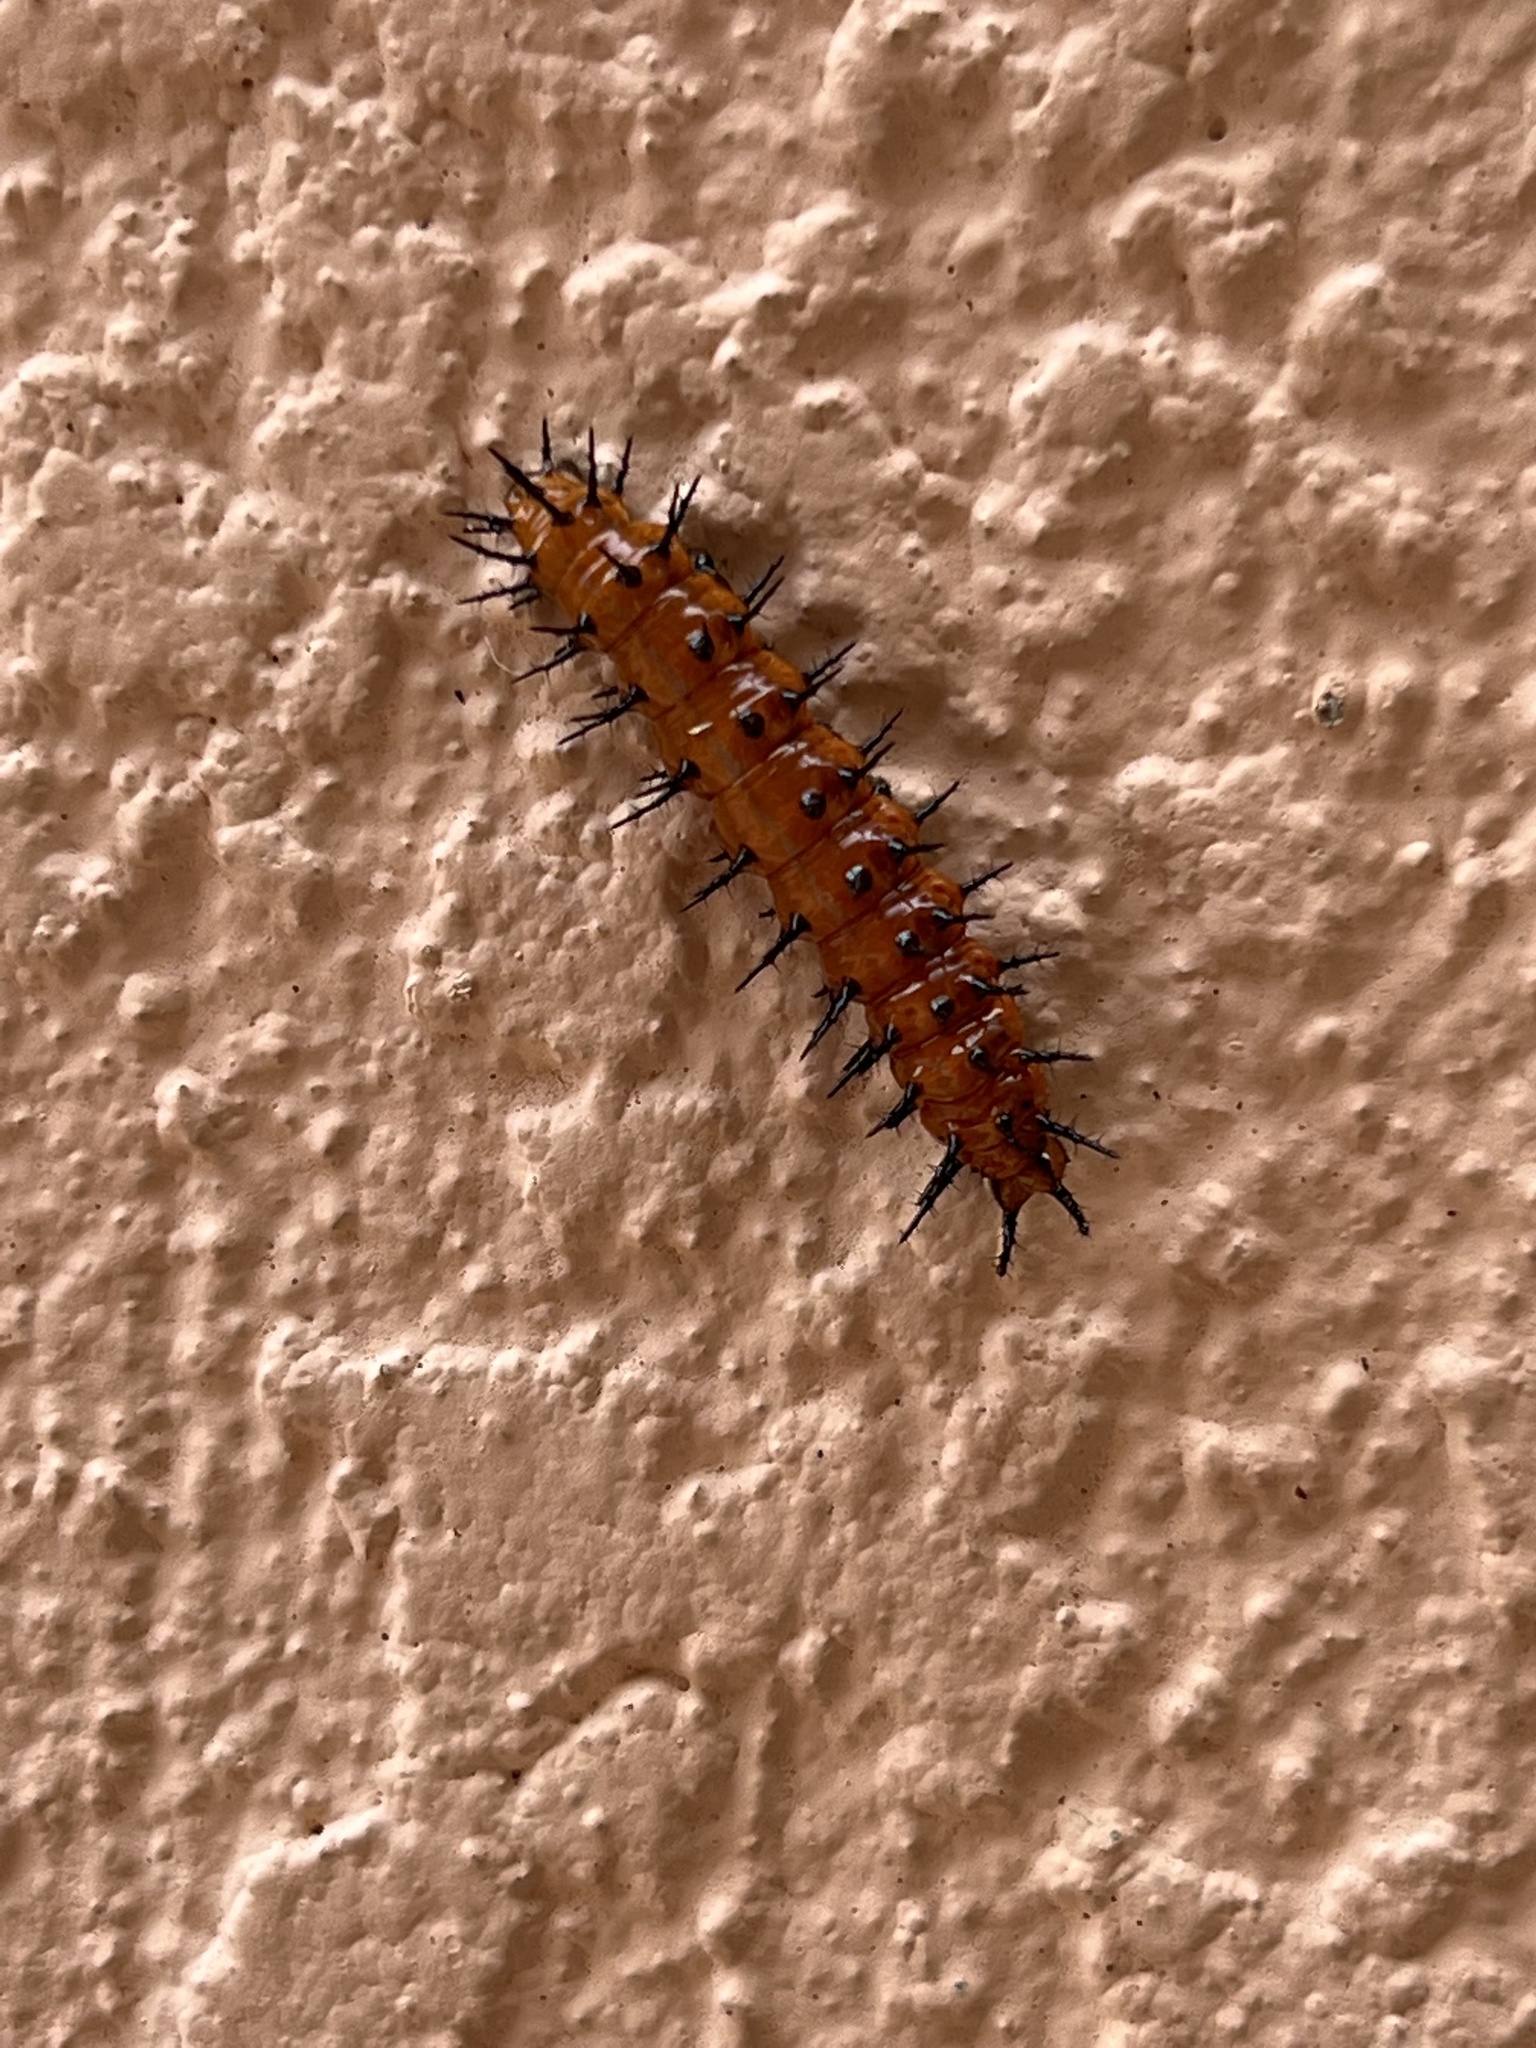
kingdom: Animalia
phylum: Arthropoda
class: Insecta
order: Lepidoptera
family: Nymphalidae
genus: Dione
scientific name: Dione vanillae
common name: Gulf fritillary
